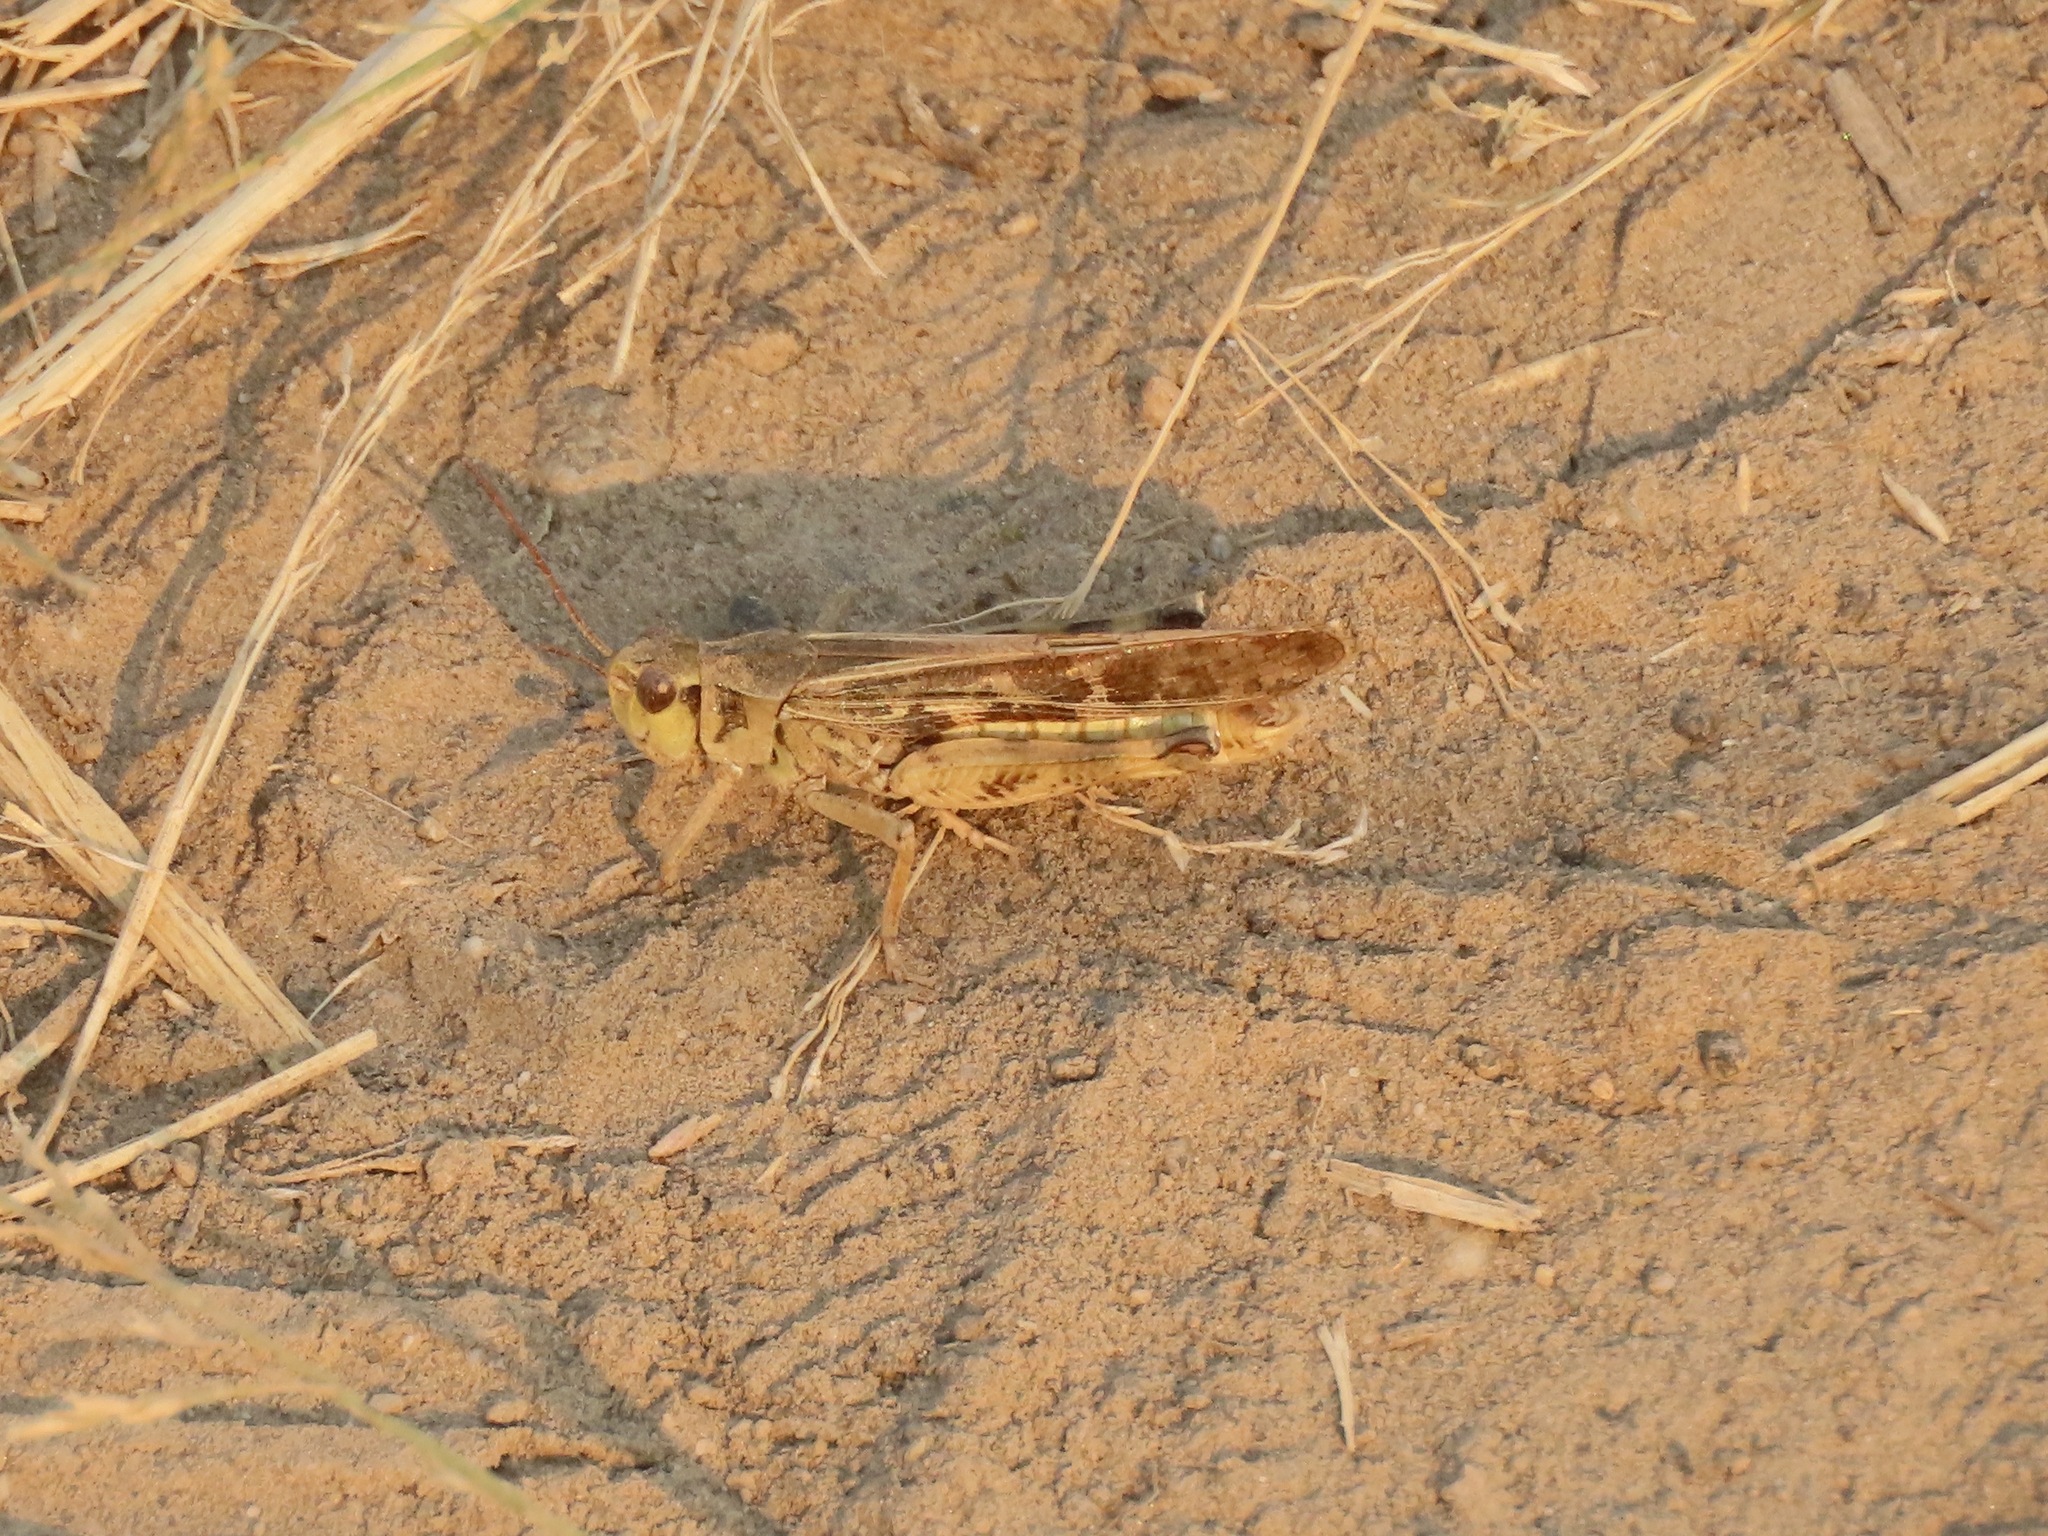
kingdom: Animalia
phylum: Arthropoda
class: Insecta
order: Orthoptera
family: Acrididae
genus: Camnula
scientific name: Camnula pellucida
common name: Clear-winged grasshopper
